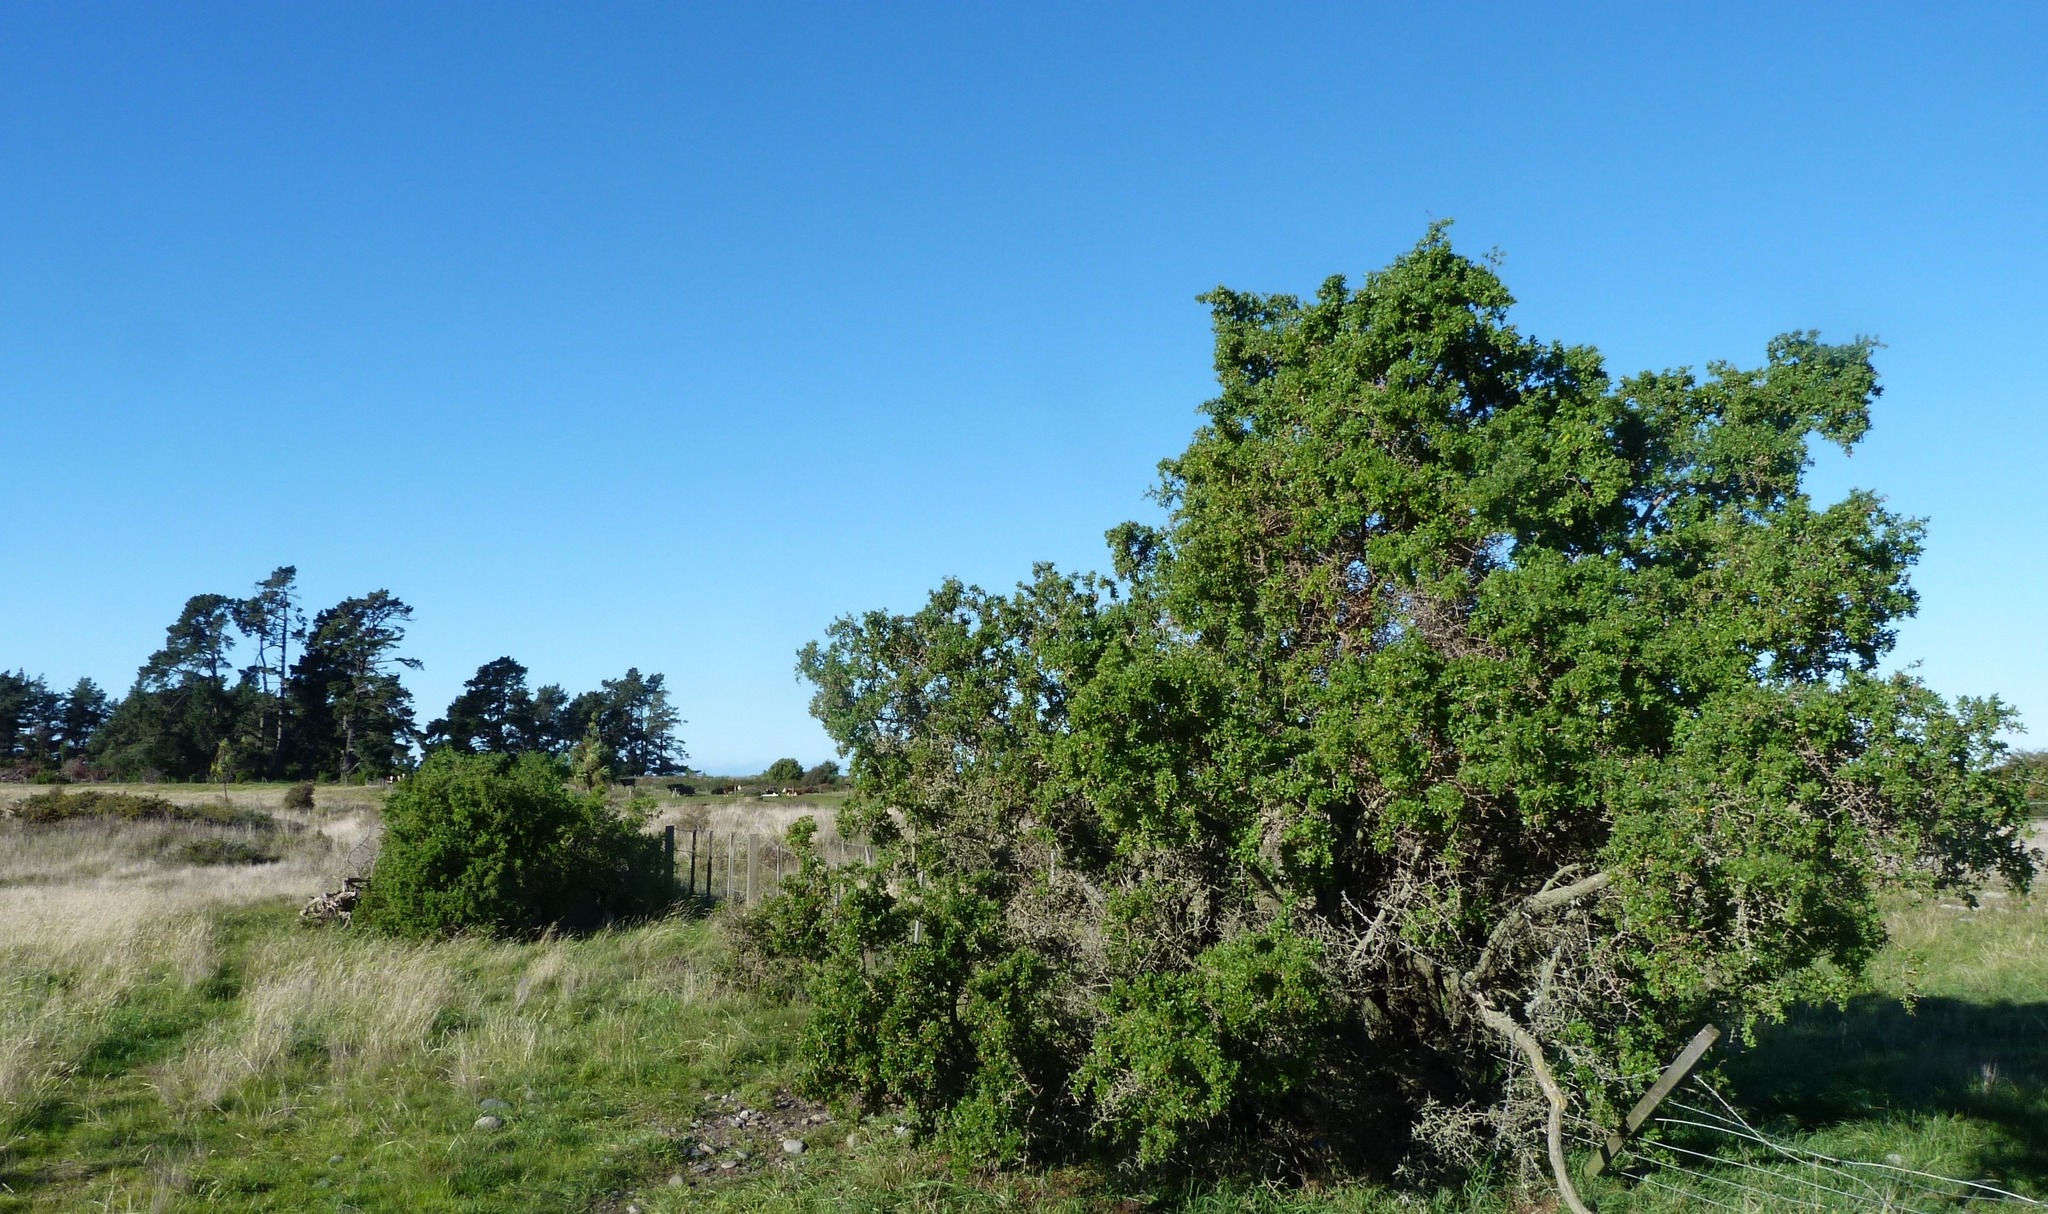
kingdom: Plantae
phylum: Tracheophyta
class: Magnoliopsida
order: Solanales
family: Solanaceae
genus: Lycium
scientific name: Lycium ferocissimum
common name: African boxthorn
